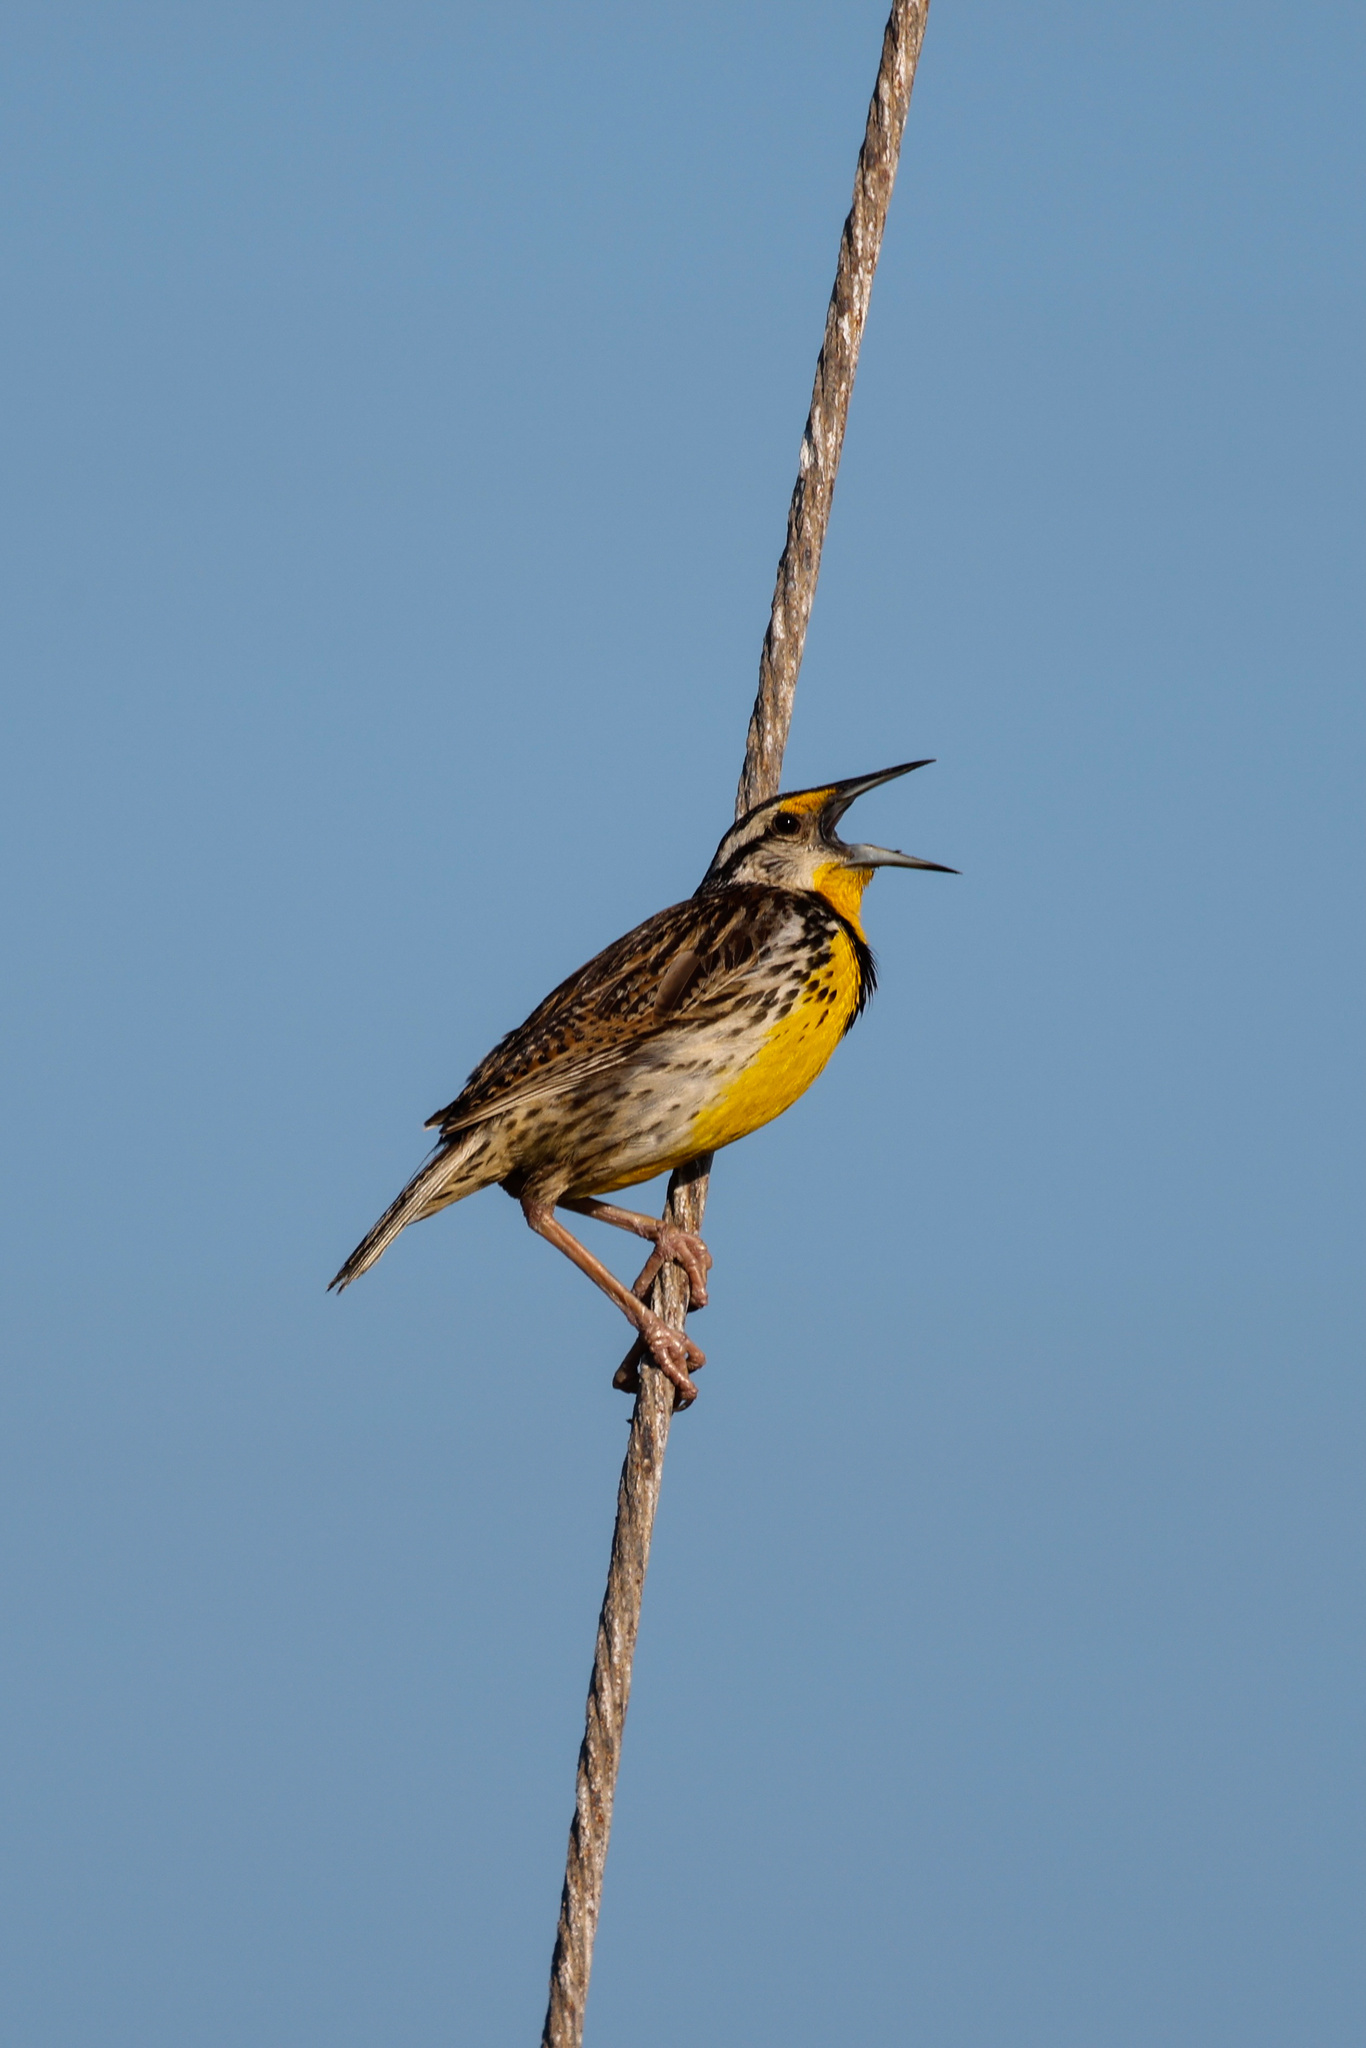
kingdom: Animalia
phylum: Chordata
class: Aves
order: Passeriformes
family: Icteridae
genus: Sturnella
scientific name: Sturnella magna
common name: Eastern meadowlark
